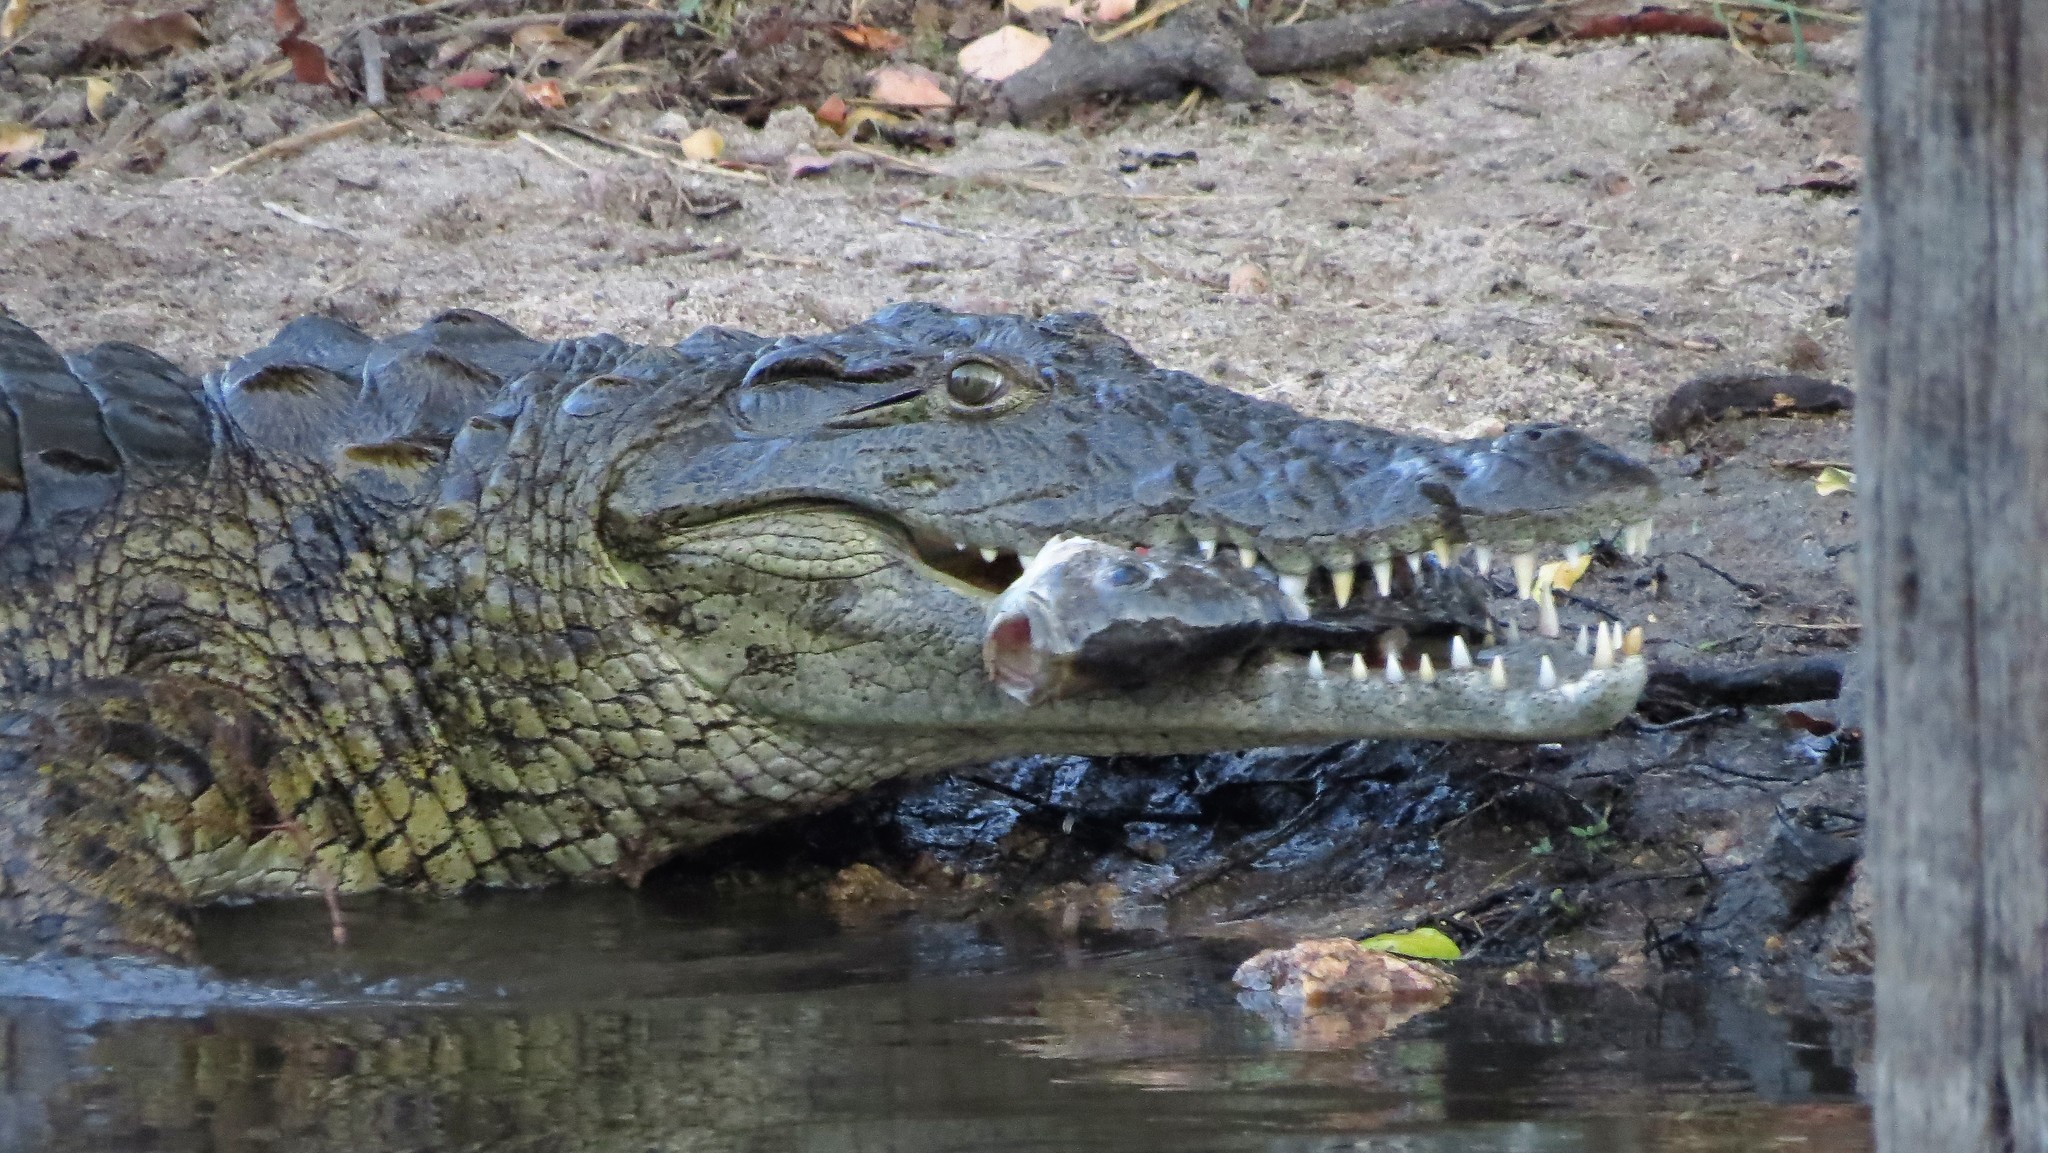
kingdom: Animalia
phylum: Chordata
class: Crocodylia
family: Crocodylidae
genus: Crocodylus
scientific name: Crocodylus niloticus
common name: Nile crocodile
